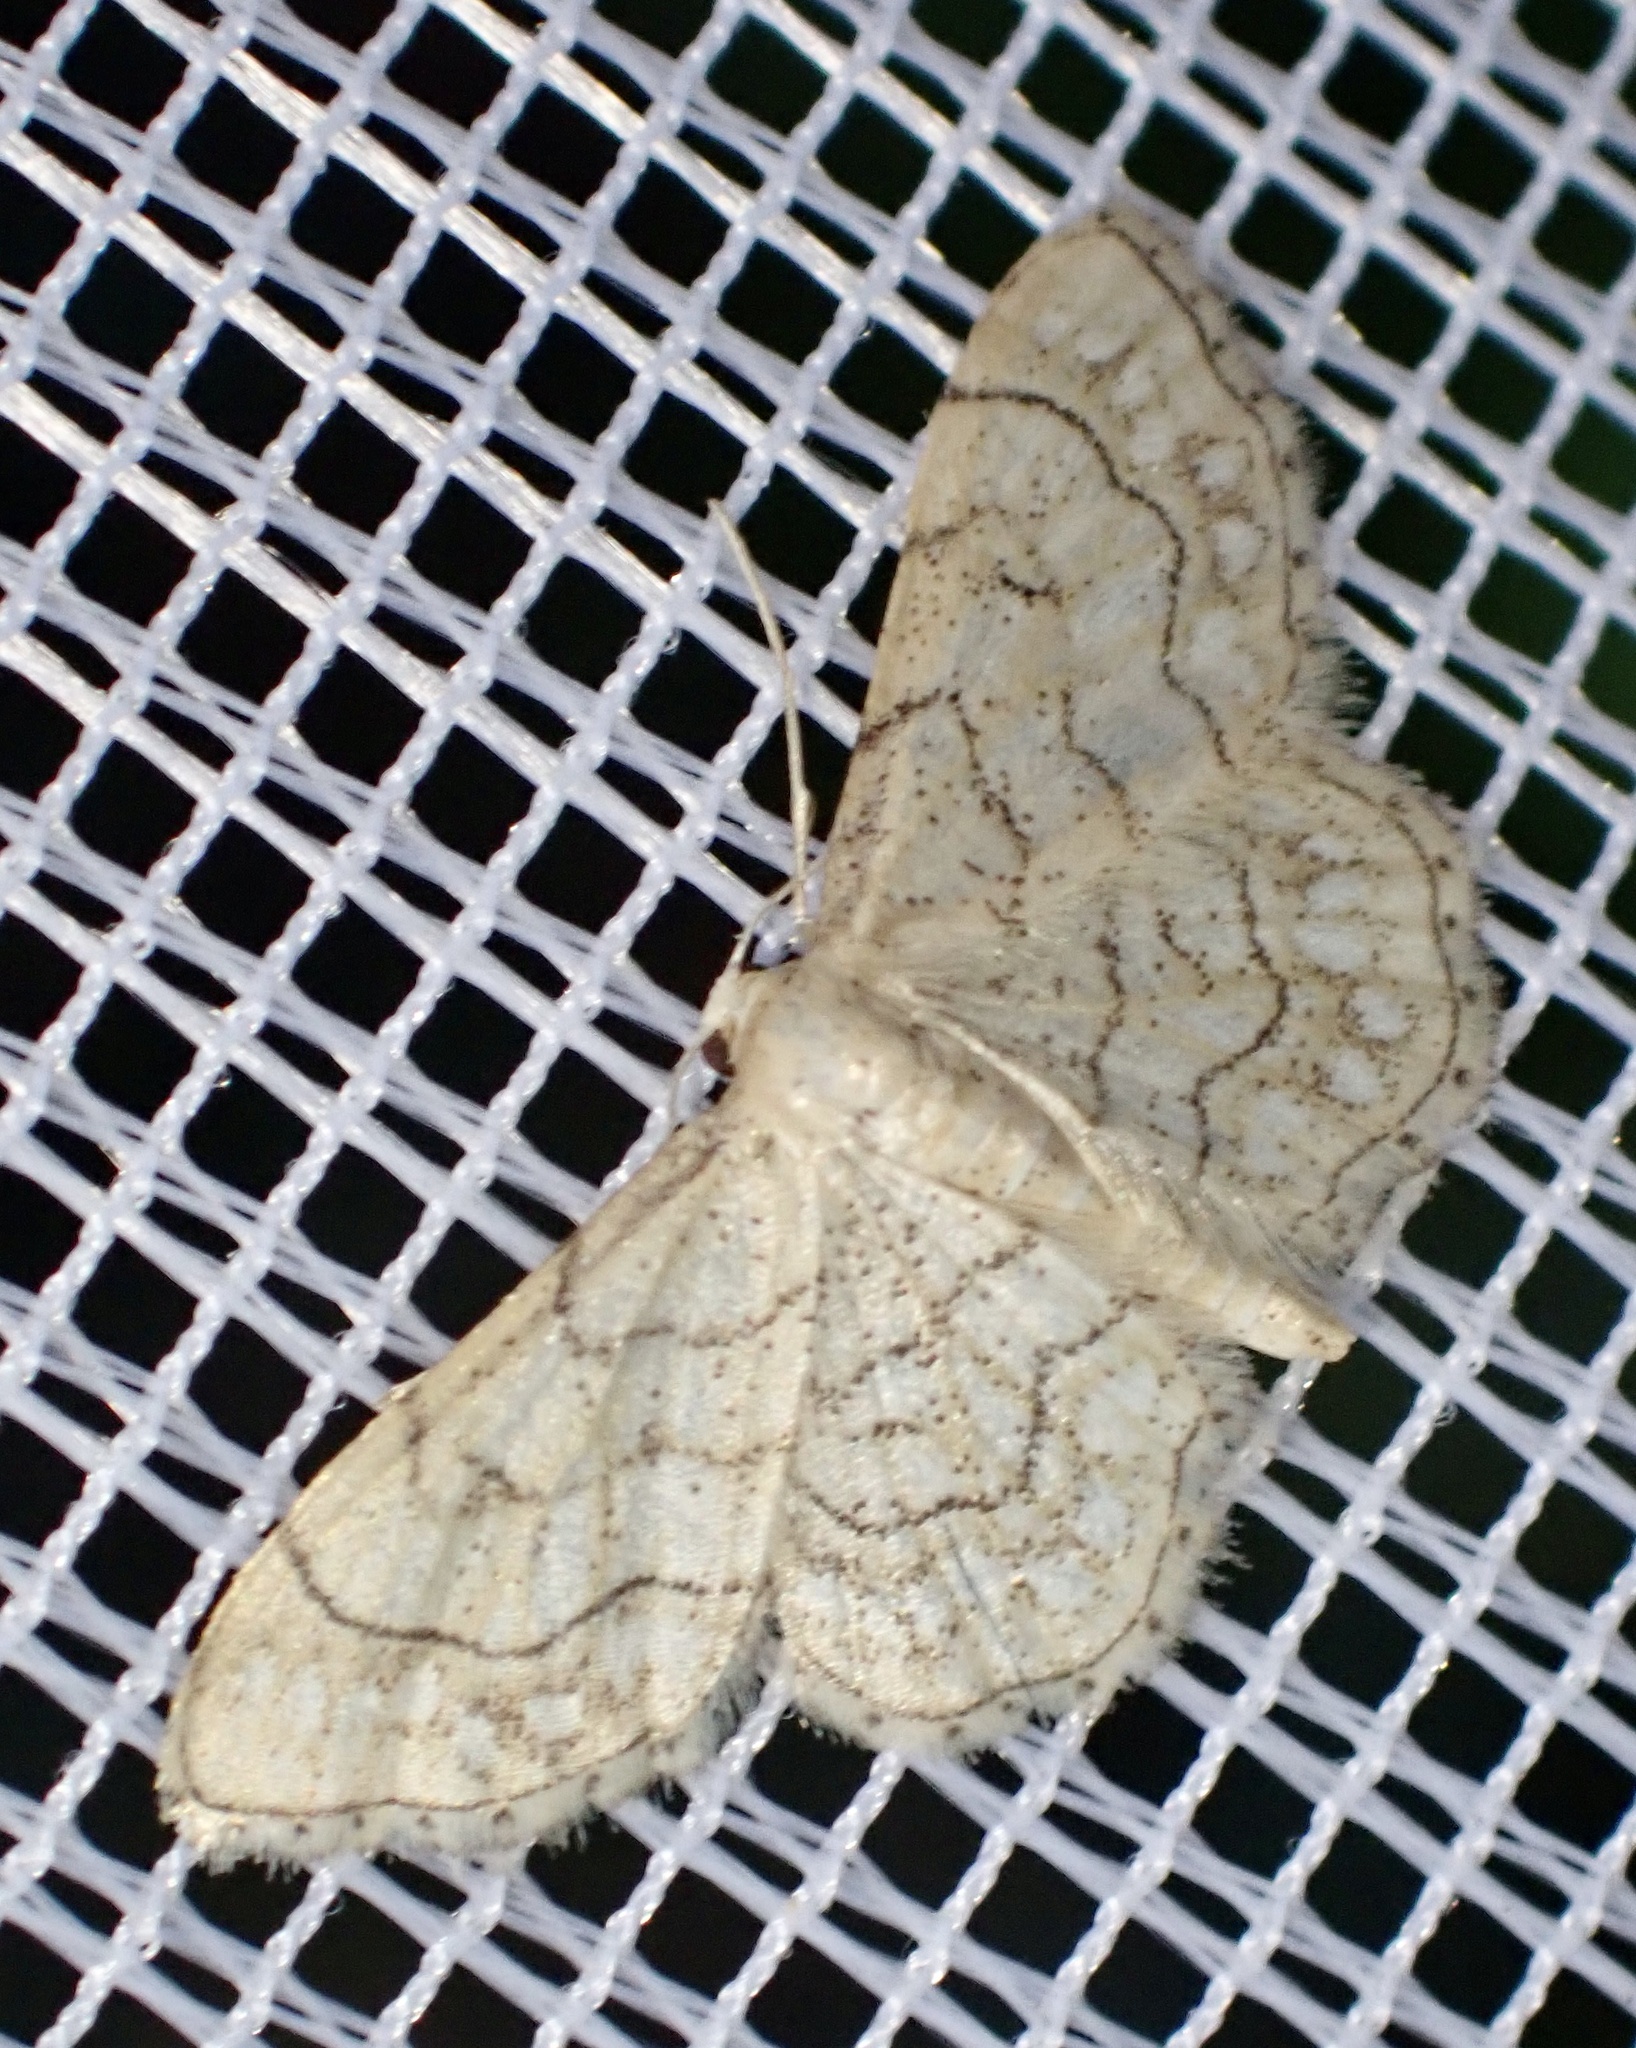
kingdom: Animalia
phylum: Arthropoda
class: Insecta
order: Lepidoptera
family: Geometridae
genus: Idaea
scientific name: Idaea moniliata
